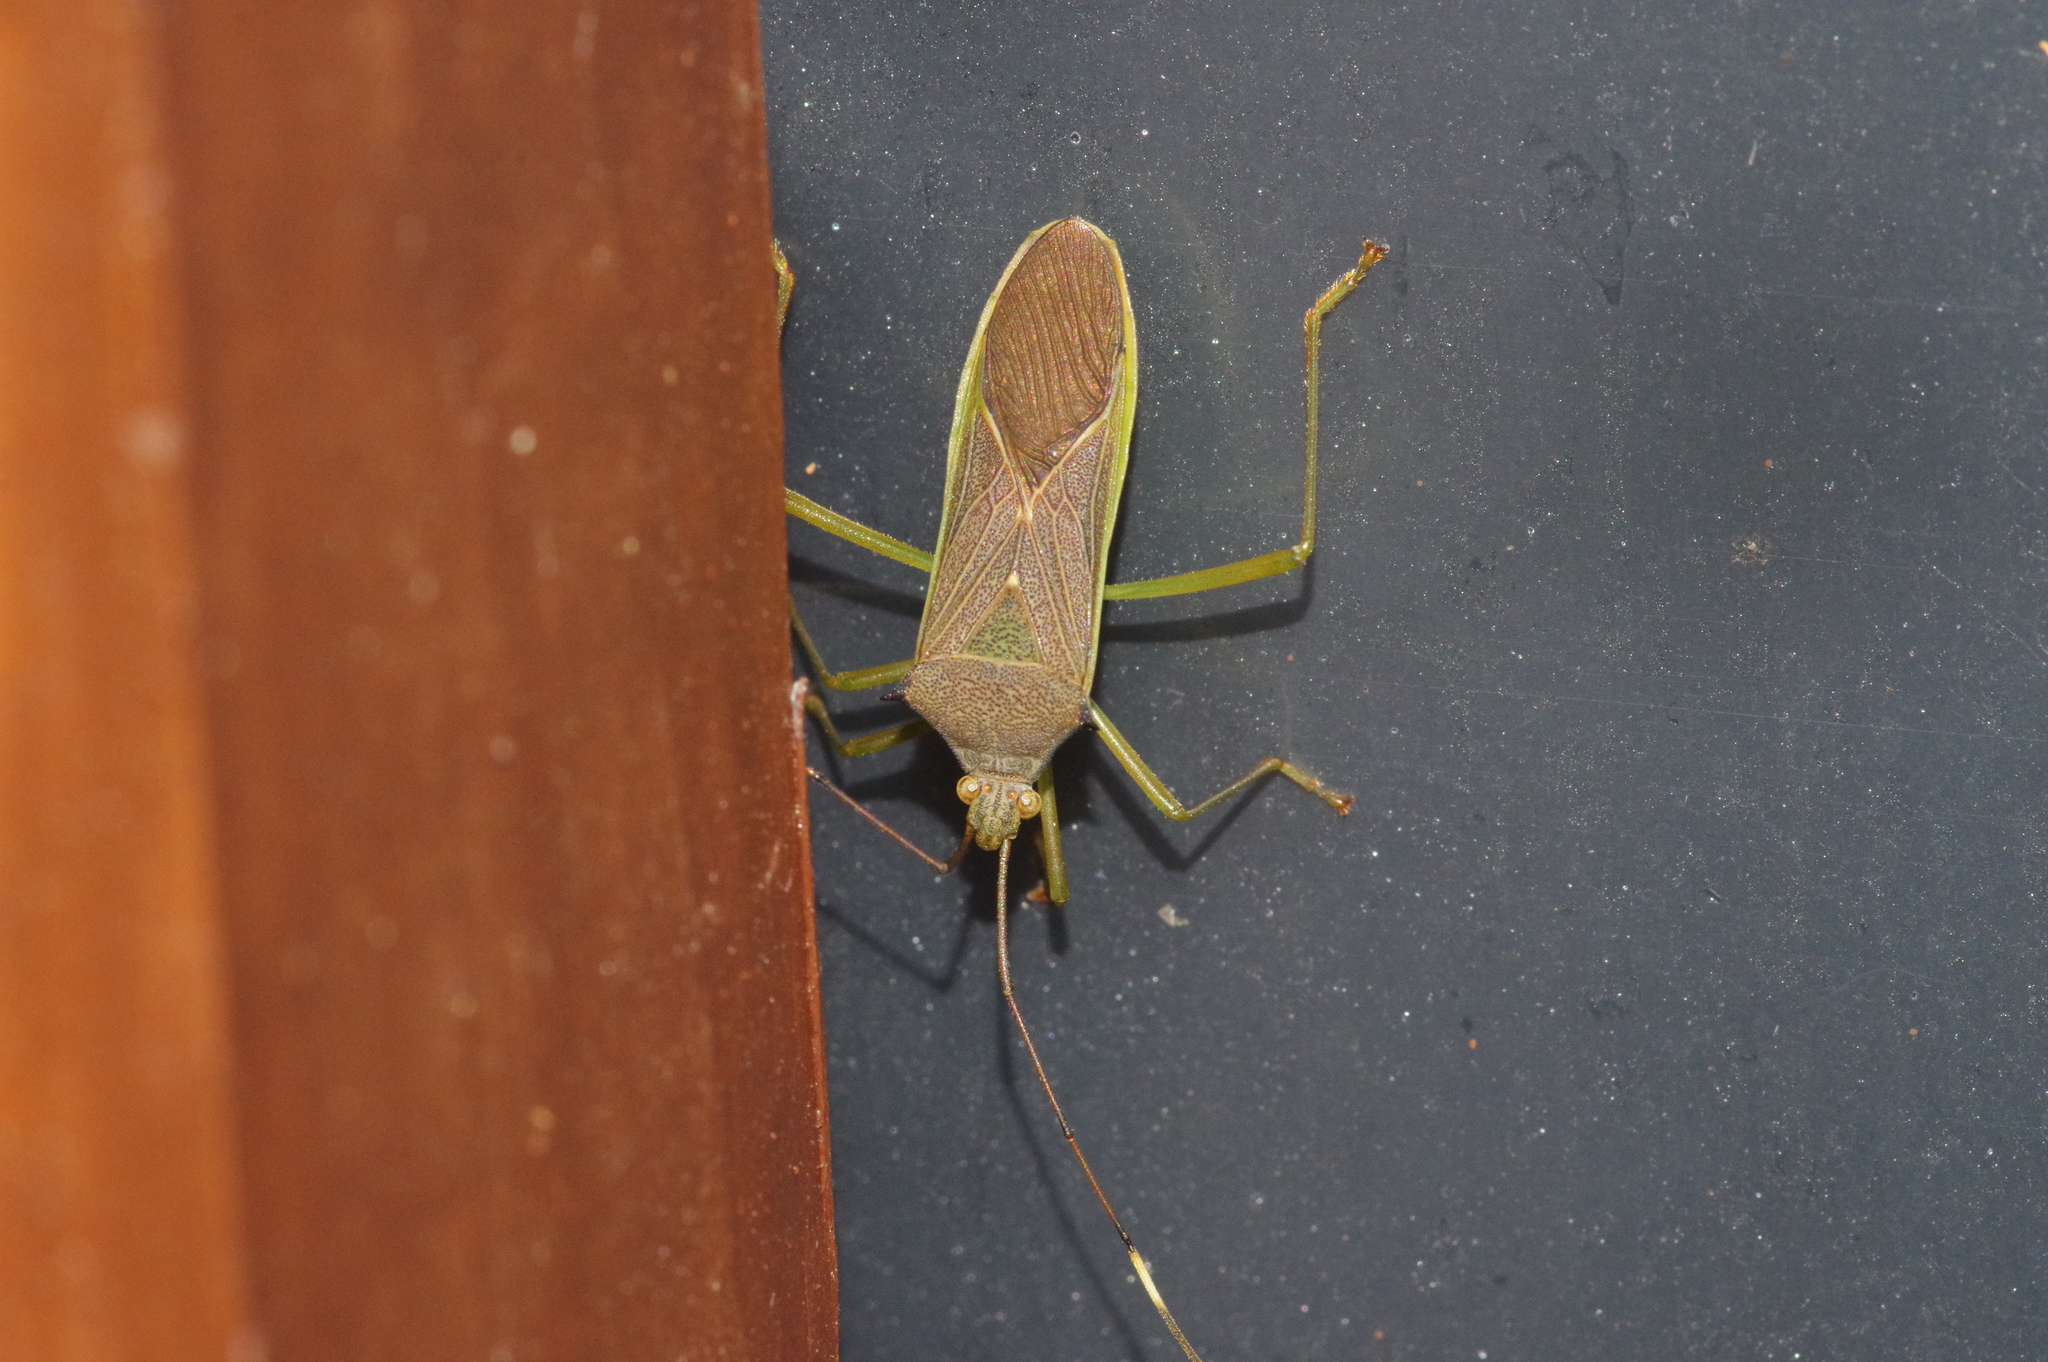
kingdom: Animalia
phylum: Arthropoda
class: Insecta
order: Hemiptera
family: Coreidae
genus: Paradasynus
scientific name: Paradasynus spinosus
